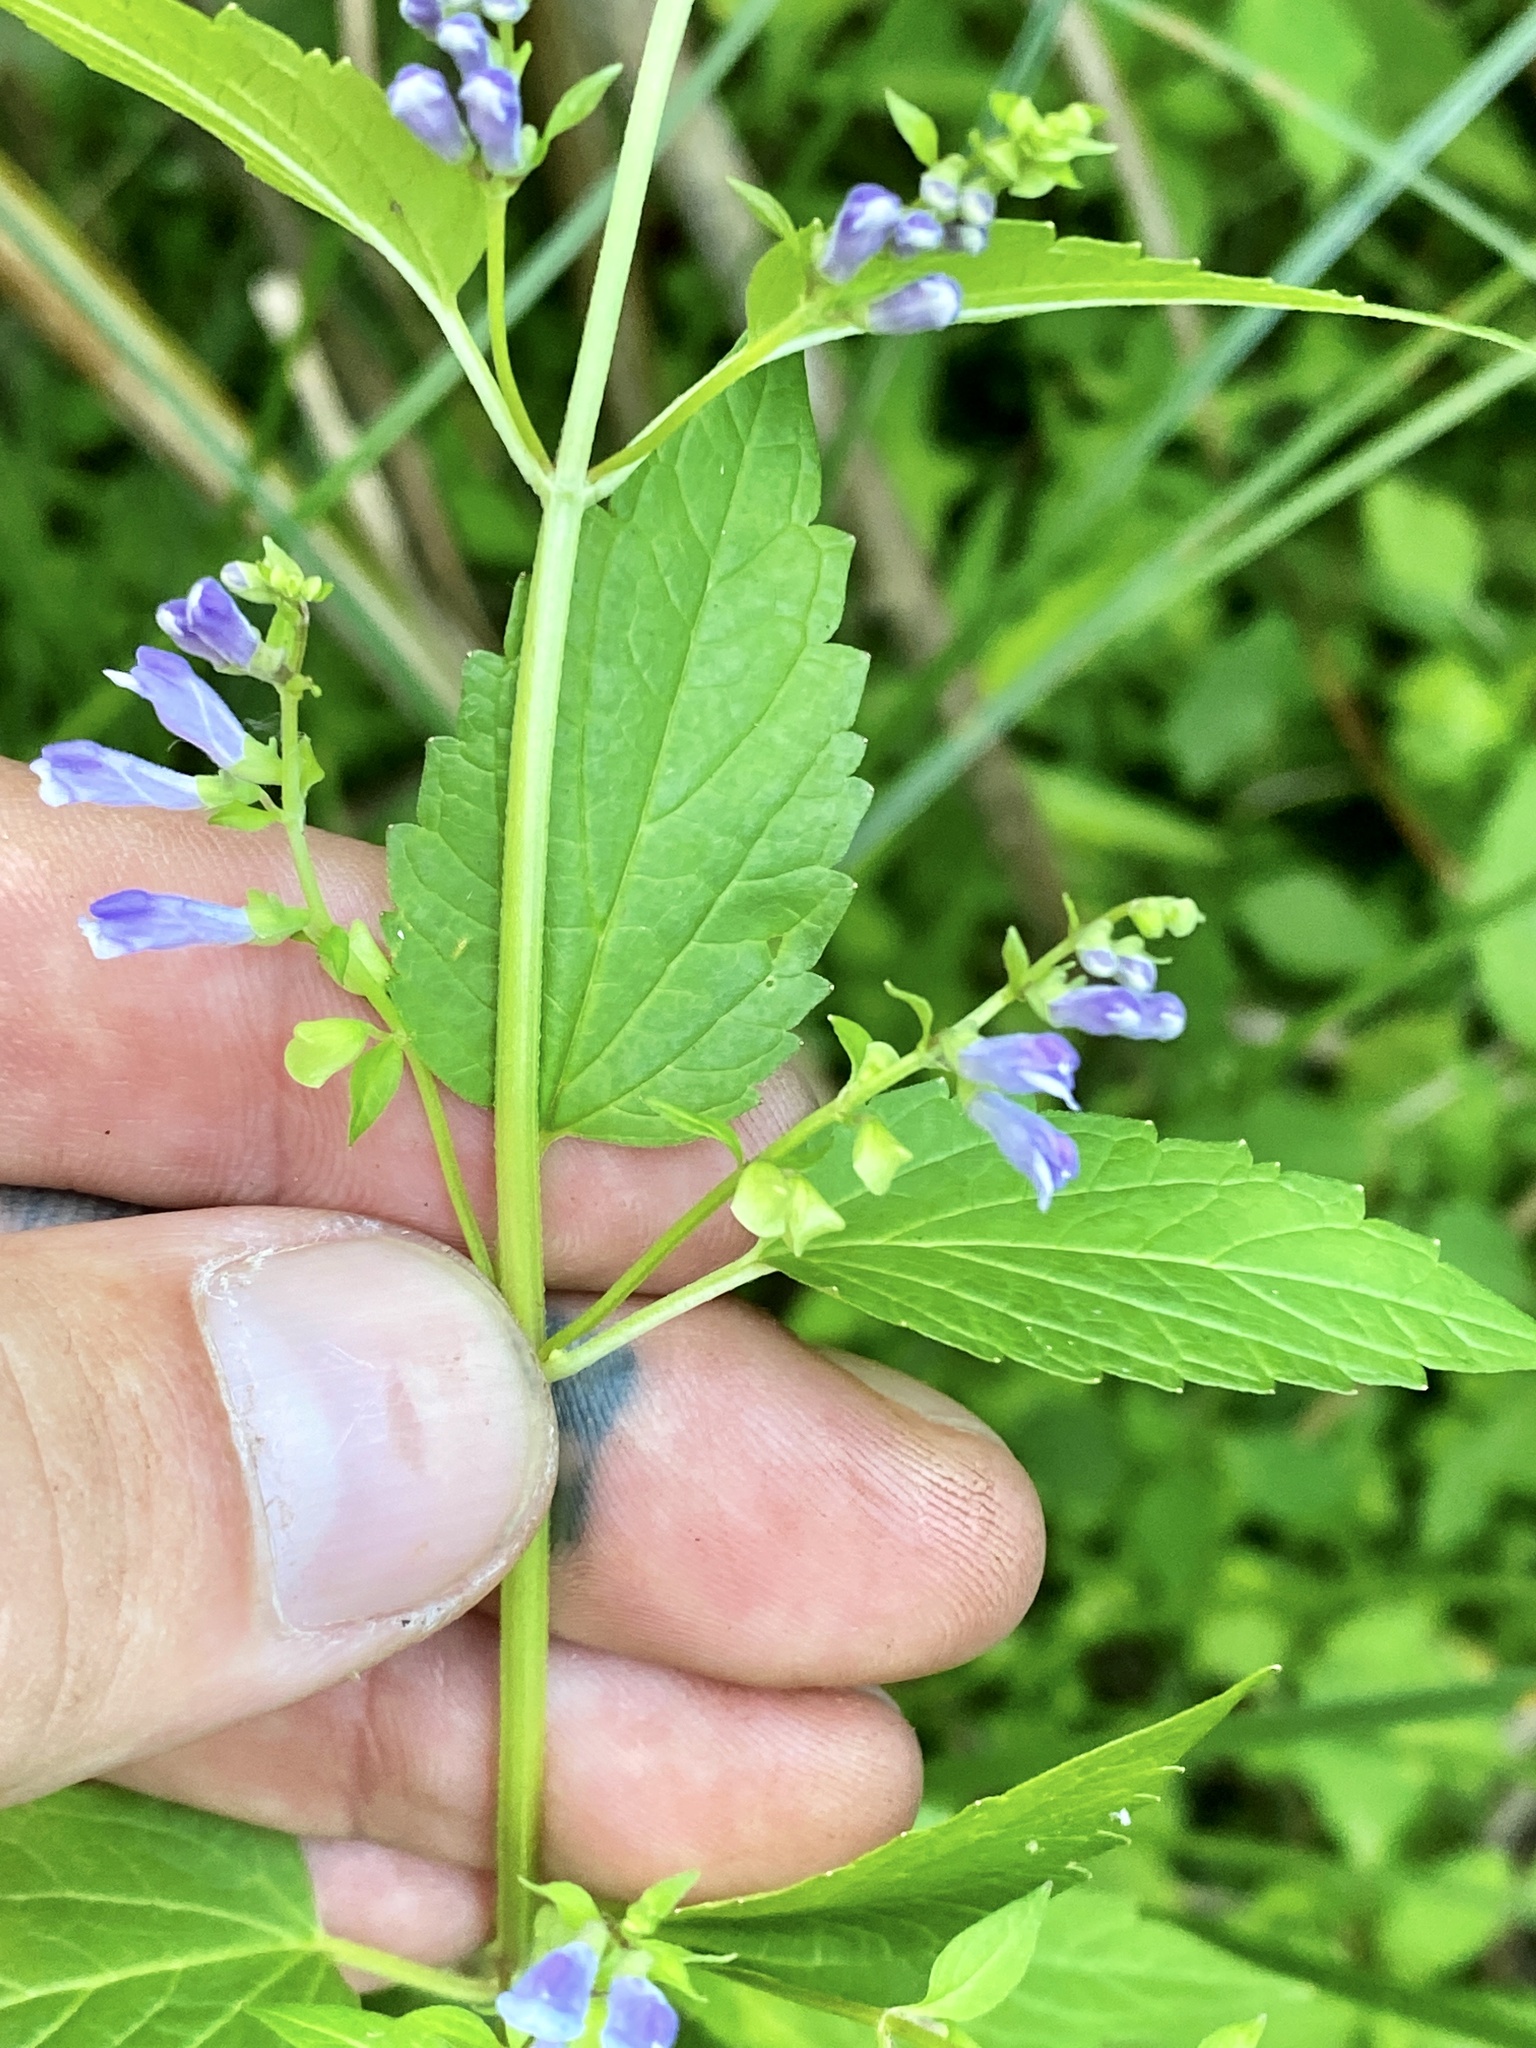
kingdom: Plantae
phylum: Tracheophyta
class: Magnoliopsida
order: Lamiales
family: Lamiaceae
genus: Scutellaria
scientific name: Scutellaria lateriflora
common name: Blue skullcap
